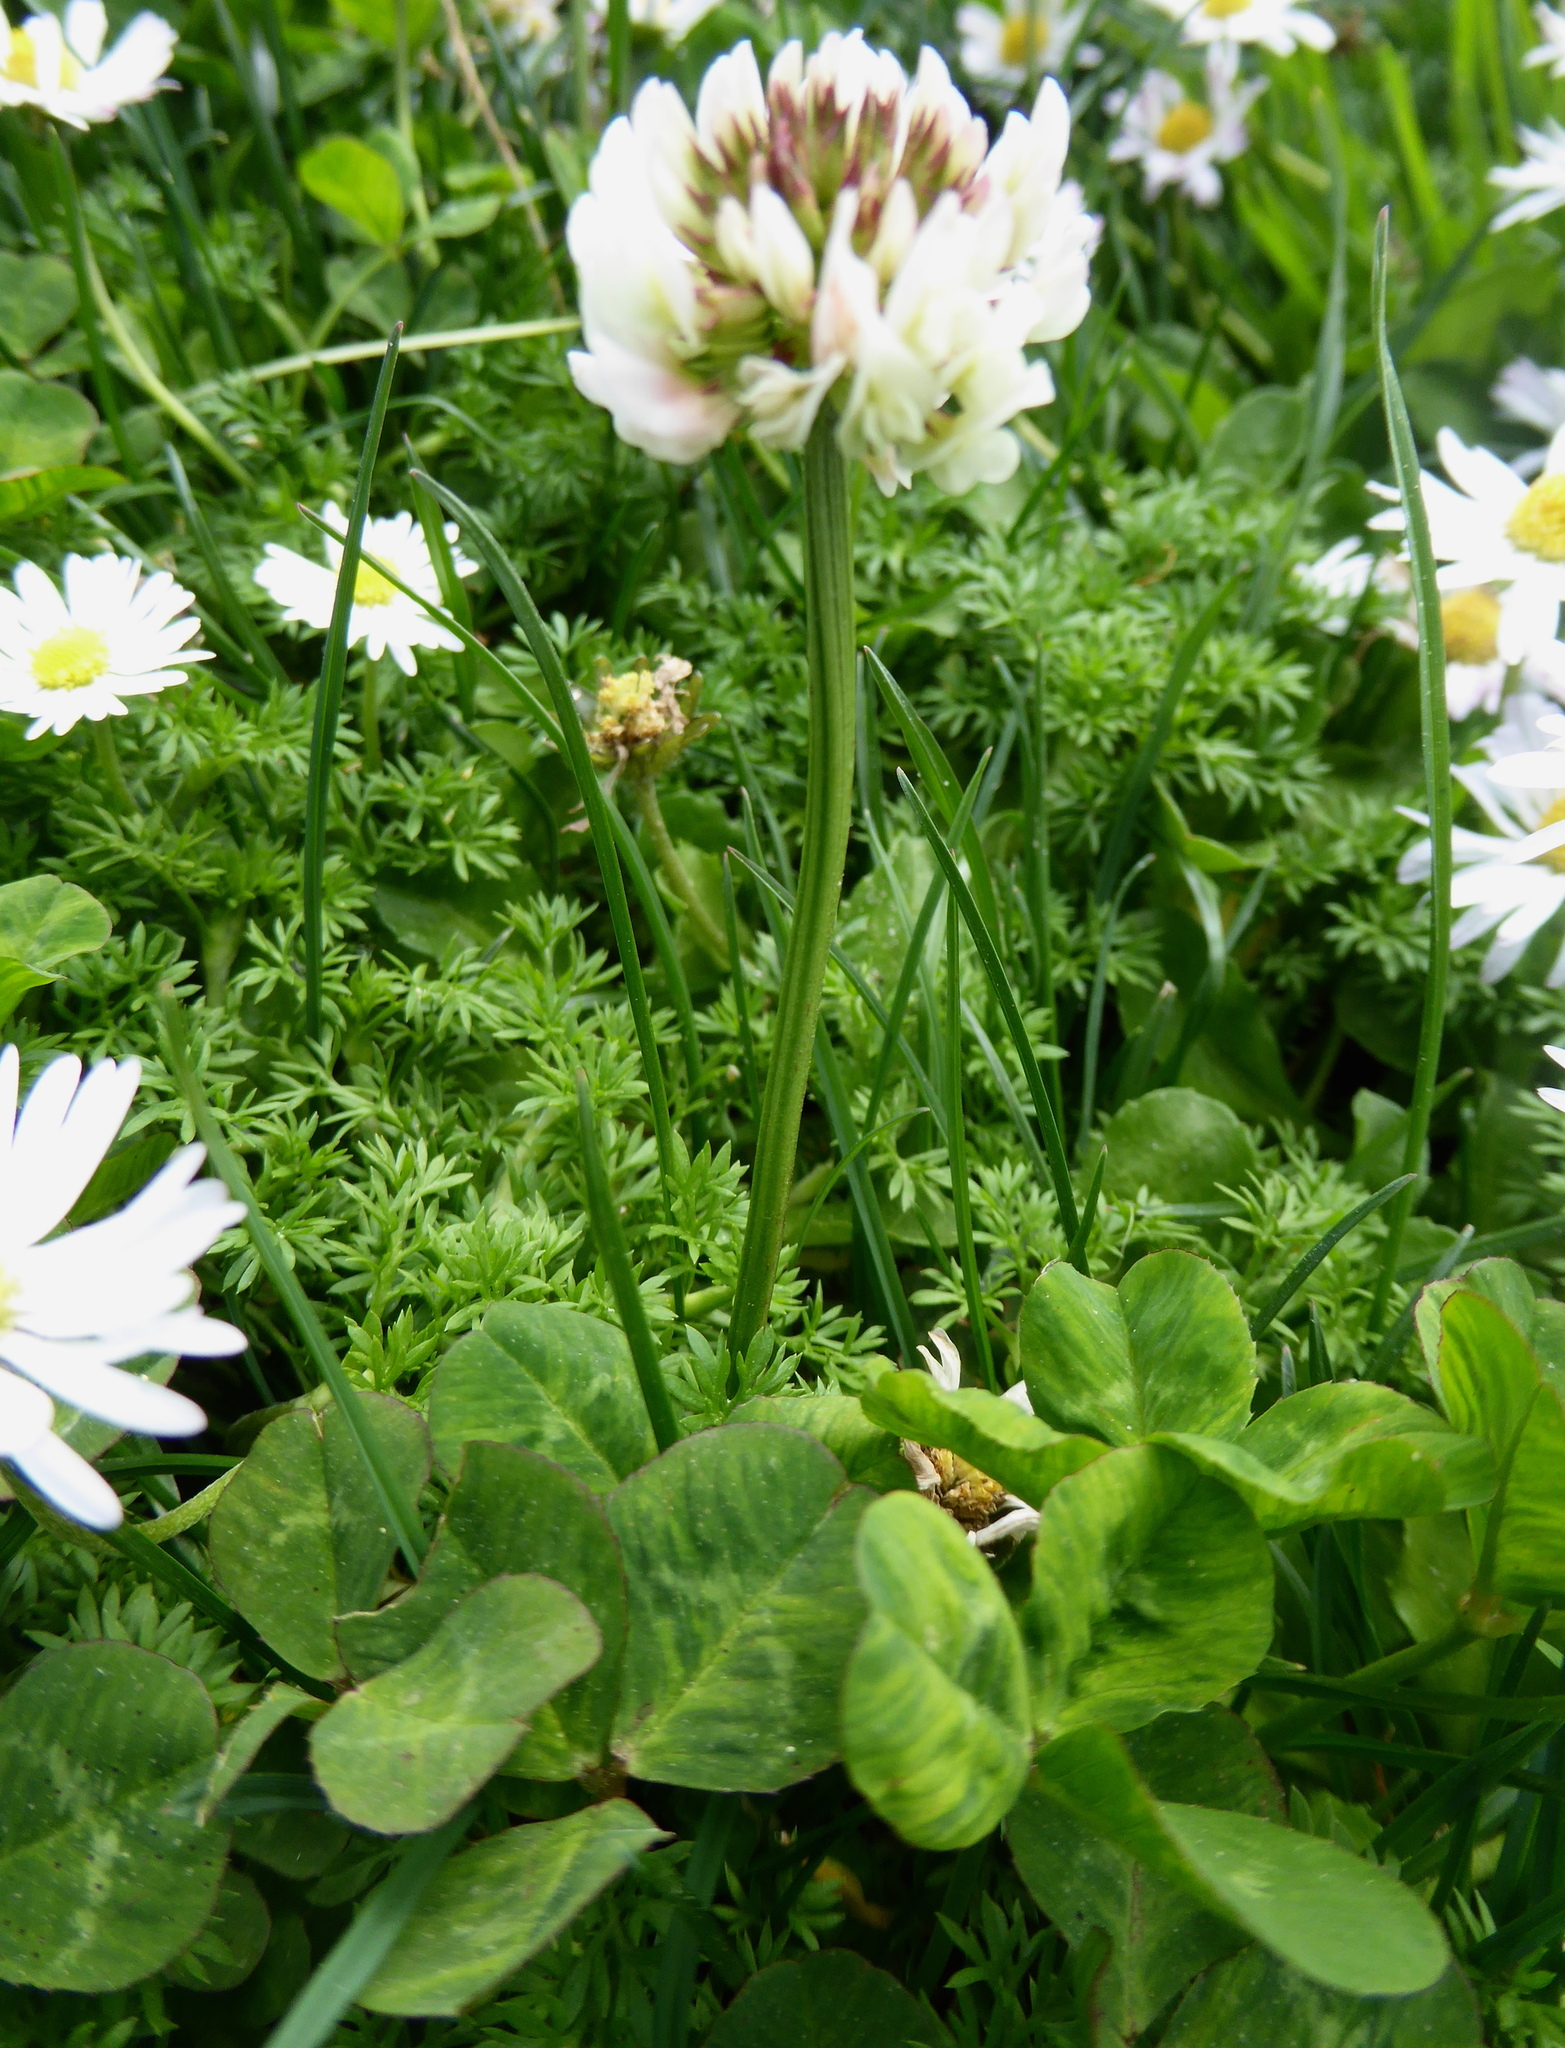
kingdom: Plantae
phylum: Tracheophyta
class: Magnoliopsida
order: Fabales
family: Fabaceae
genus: Trifolium
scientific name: Trifolium repens
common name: White clover
